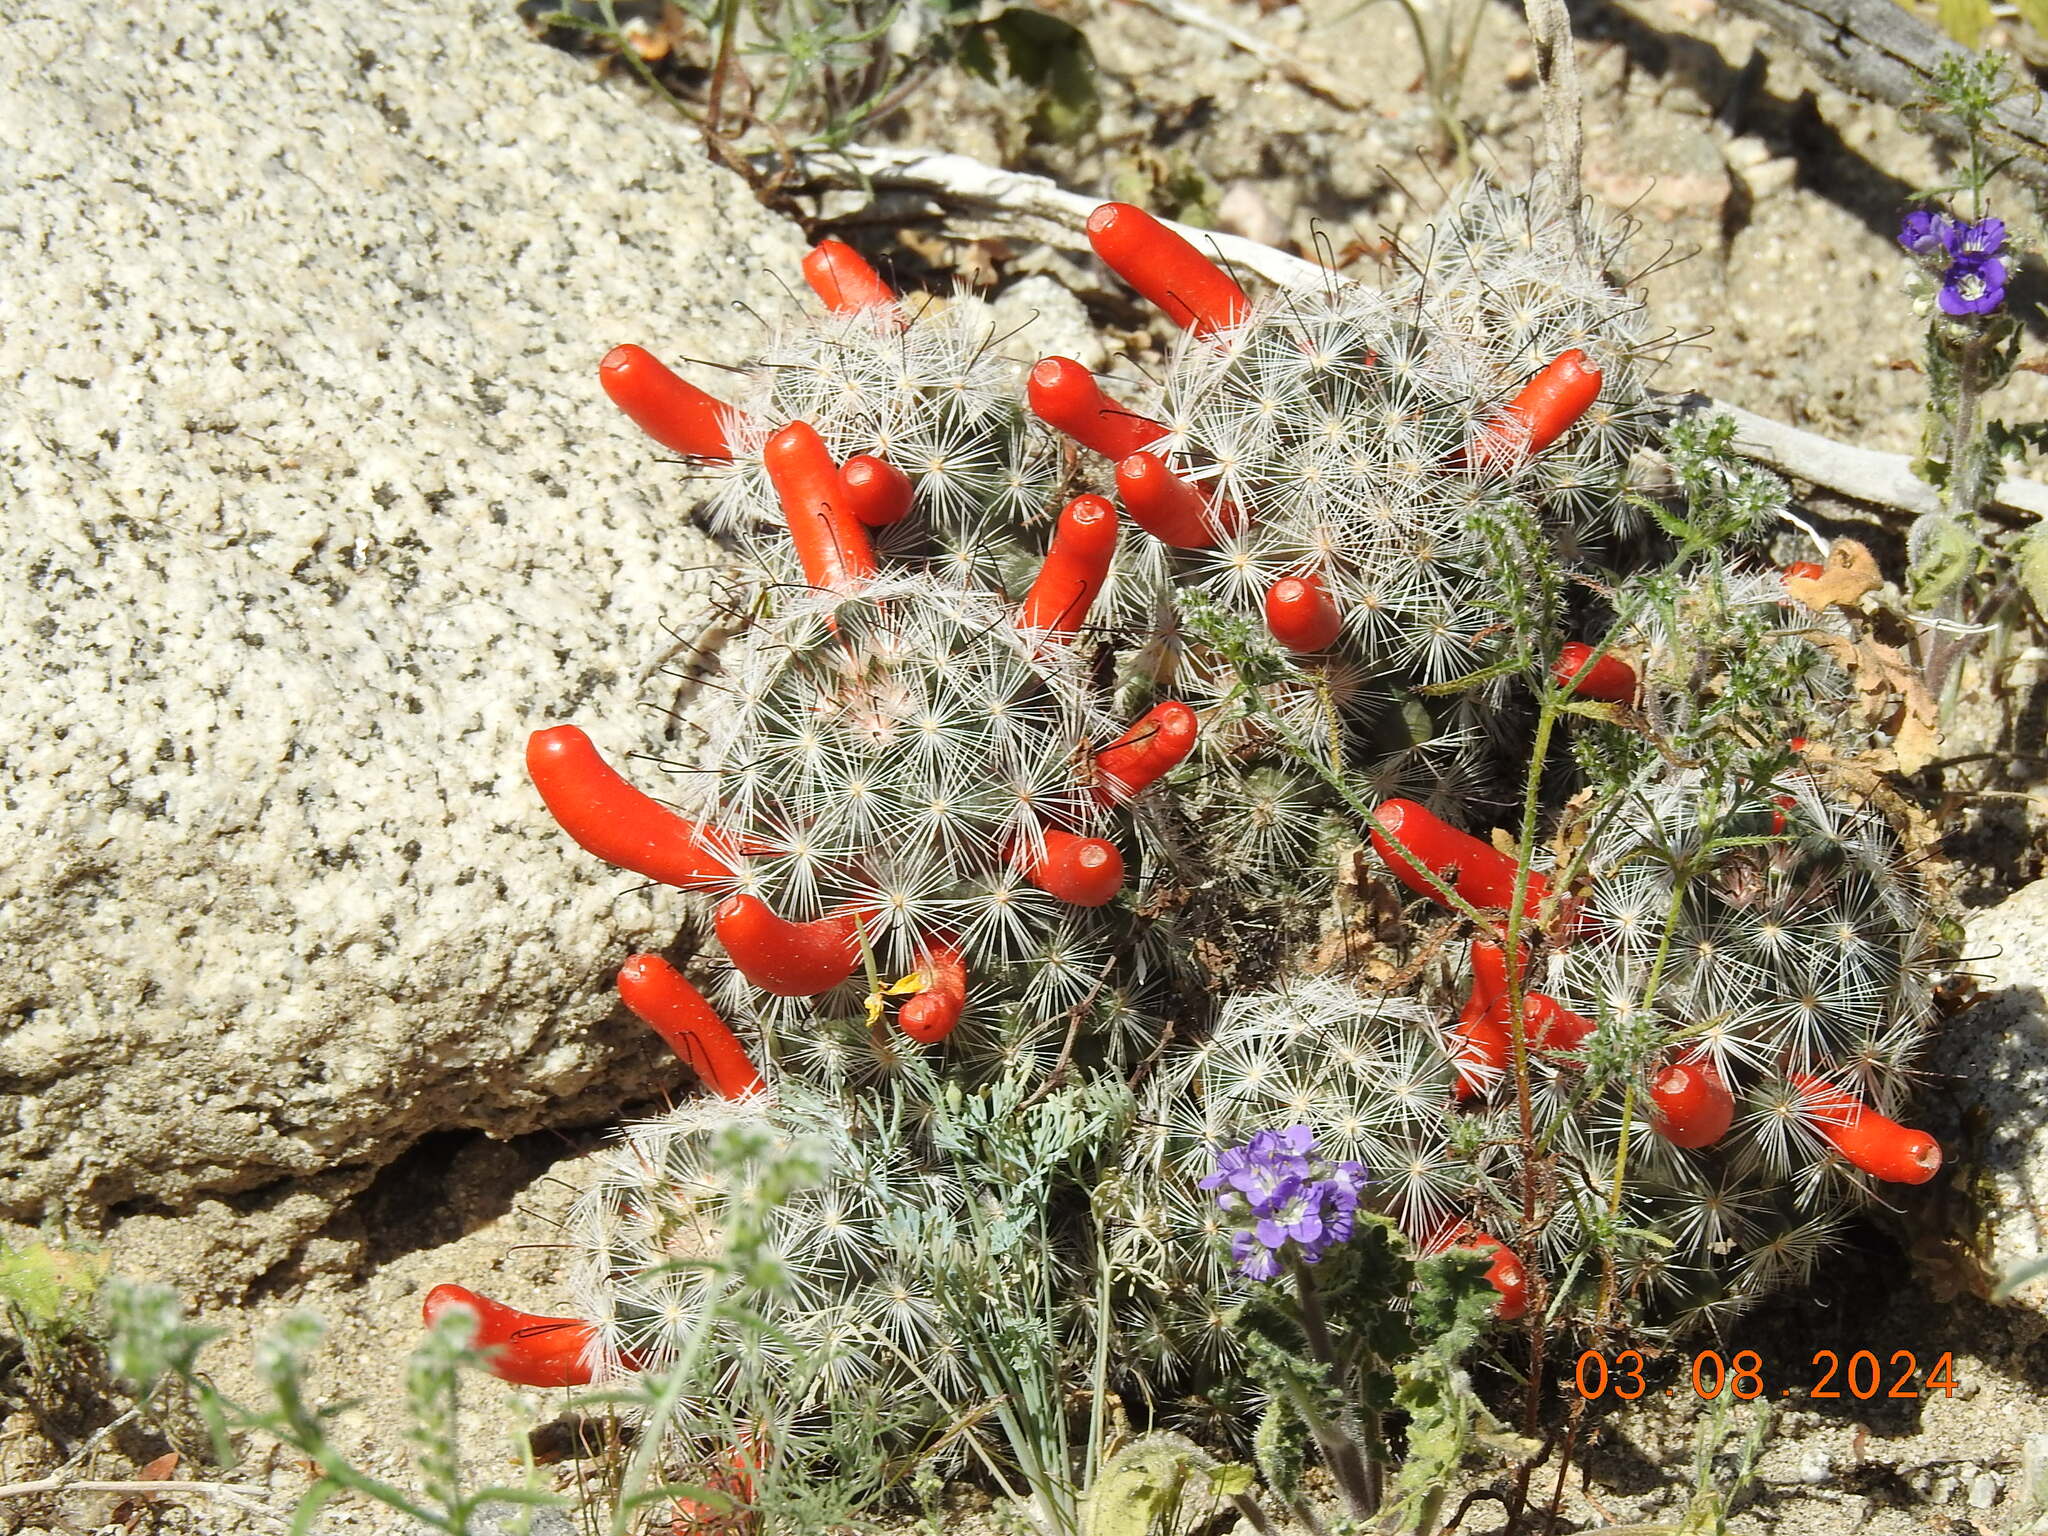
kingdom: Plantae
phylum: Tracheophyta
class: Magnoliopsida
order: Caryophyllales
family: Cactaceae
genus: Cochemiea
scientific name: Cochemiea tetrancistra
